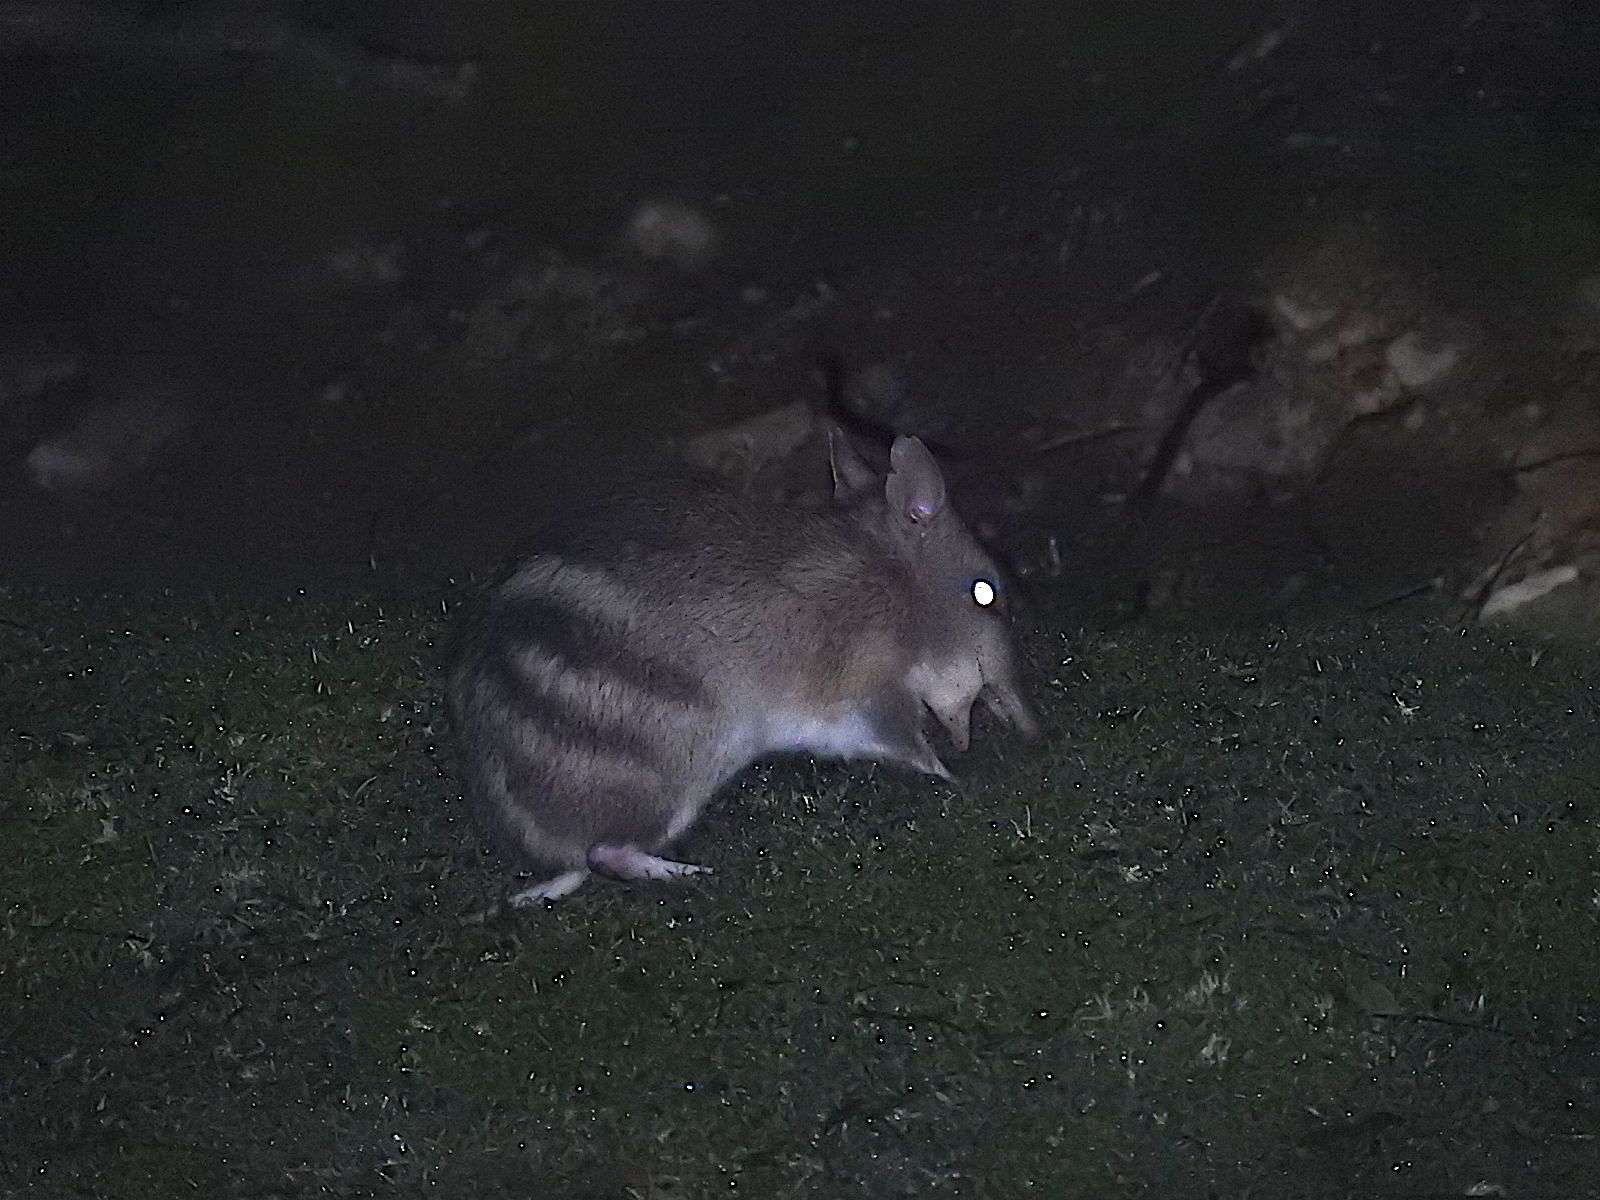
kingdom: Animalia
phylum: Chordata
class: Mammalia
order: Peramelemorphia
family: Peramelidae
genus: Perameles
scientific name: Perameles gunnii
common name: Eastern barred bandicoot
